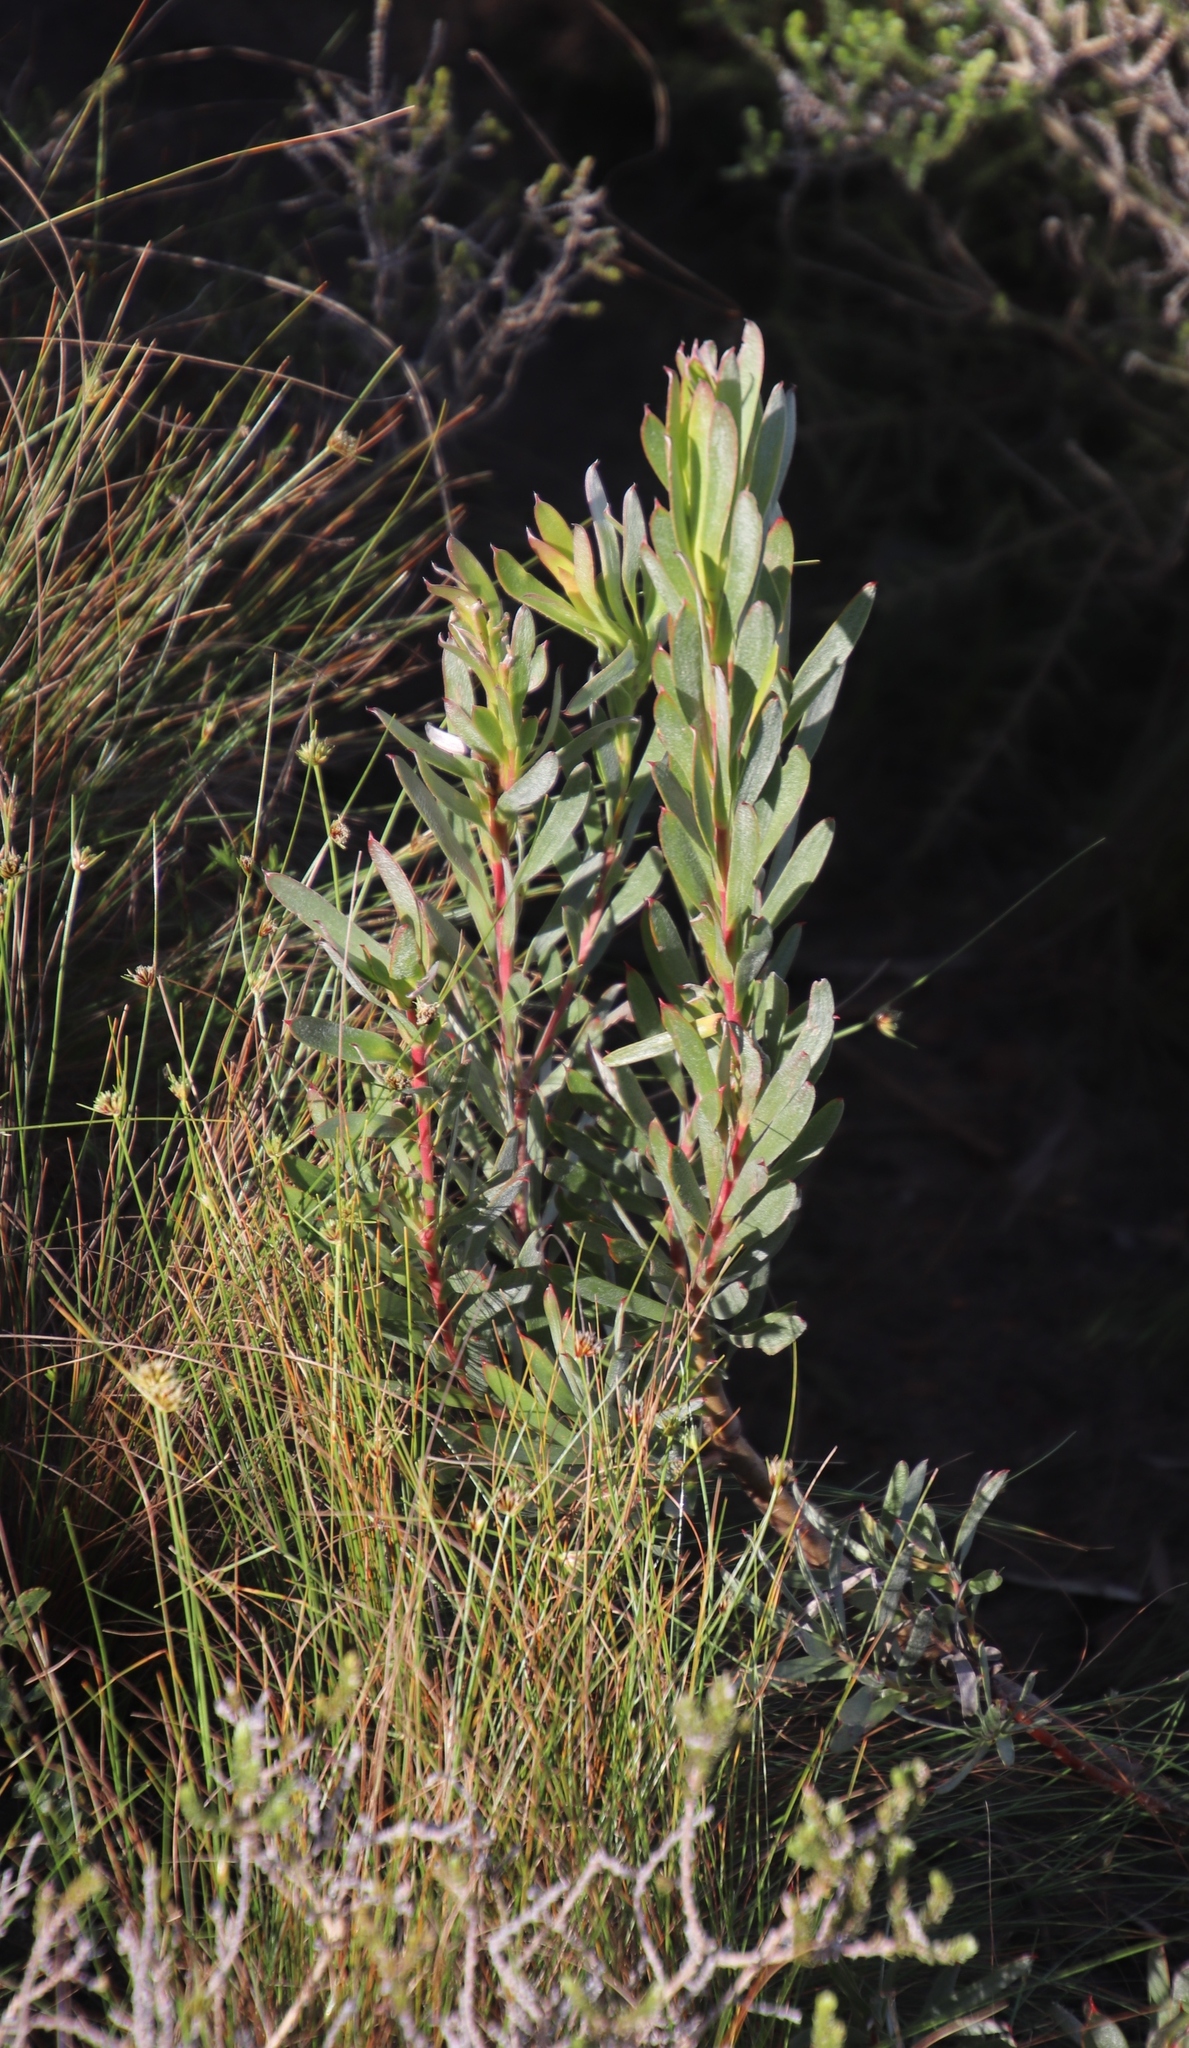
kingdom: Plantae
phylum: Tracheophyta
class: Magnoliopsida
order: Proteales
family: Proteaceae
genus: Leucadendron
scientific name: Leucadendron xanthoconus
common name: Sickle-leaf conebush
